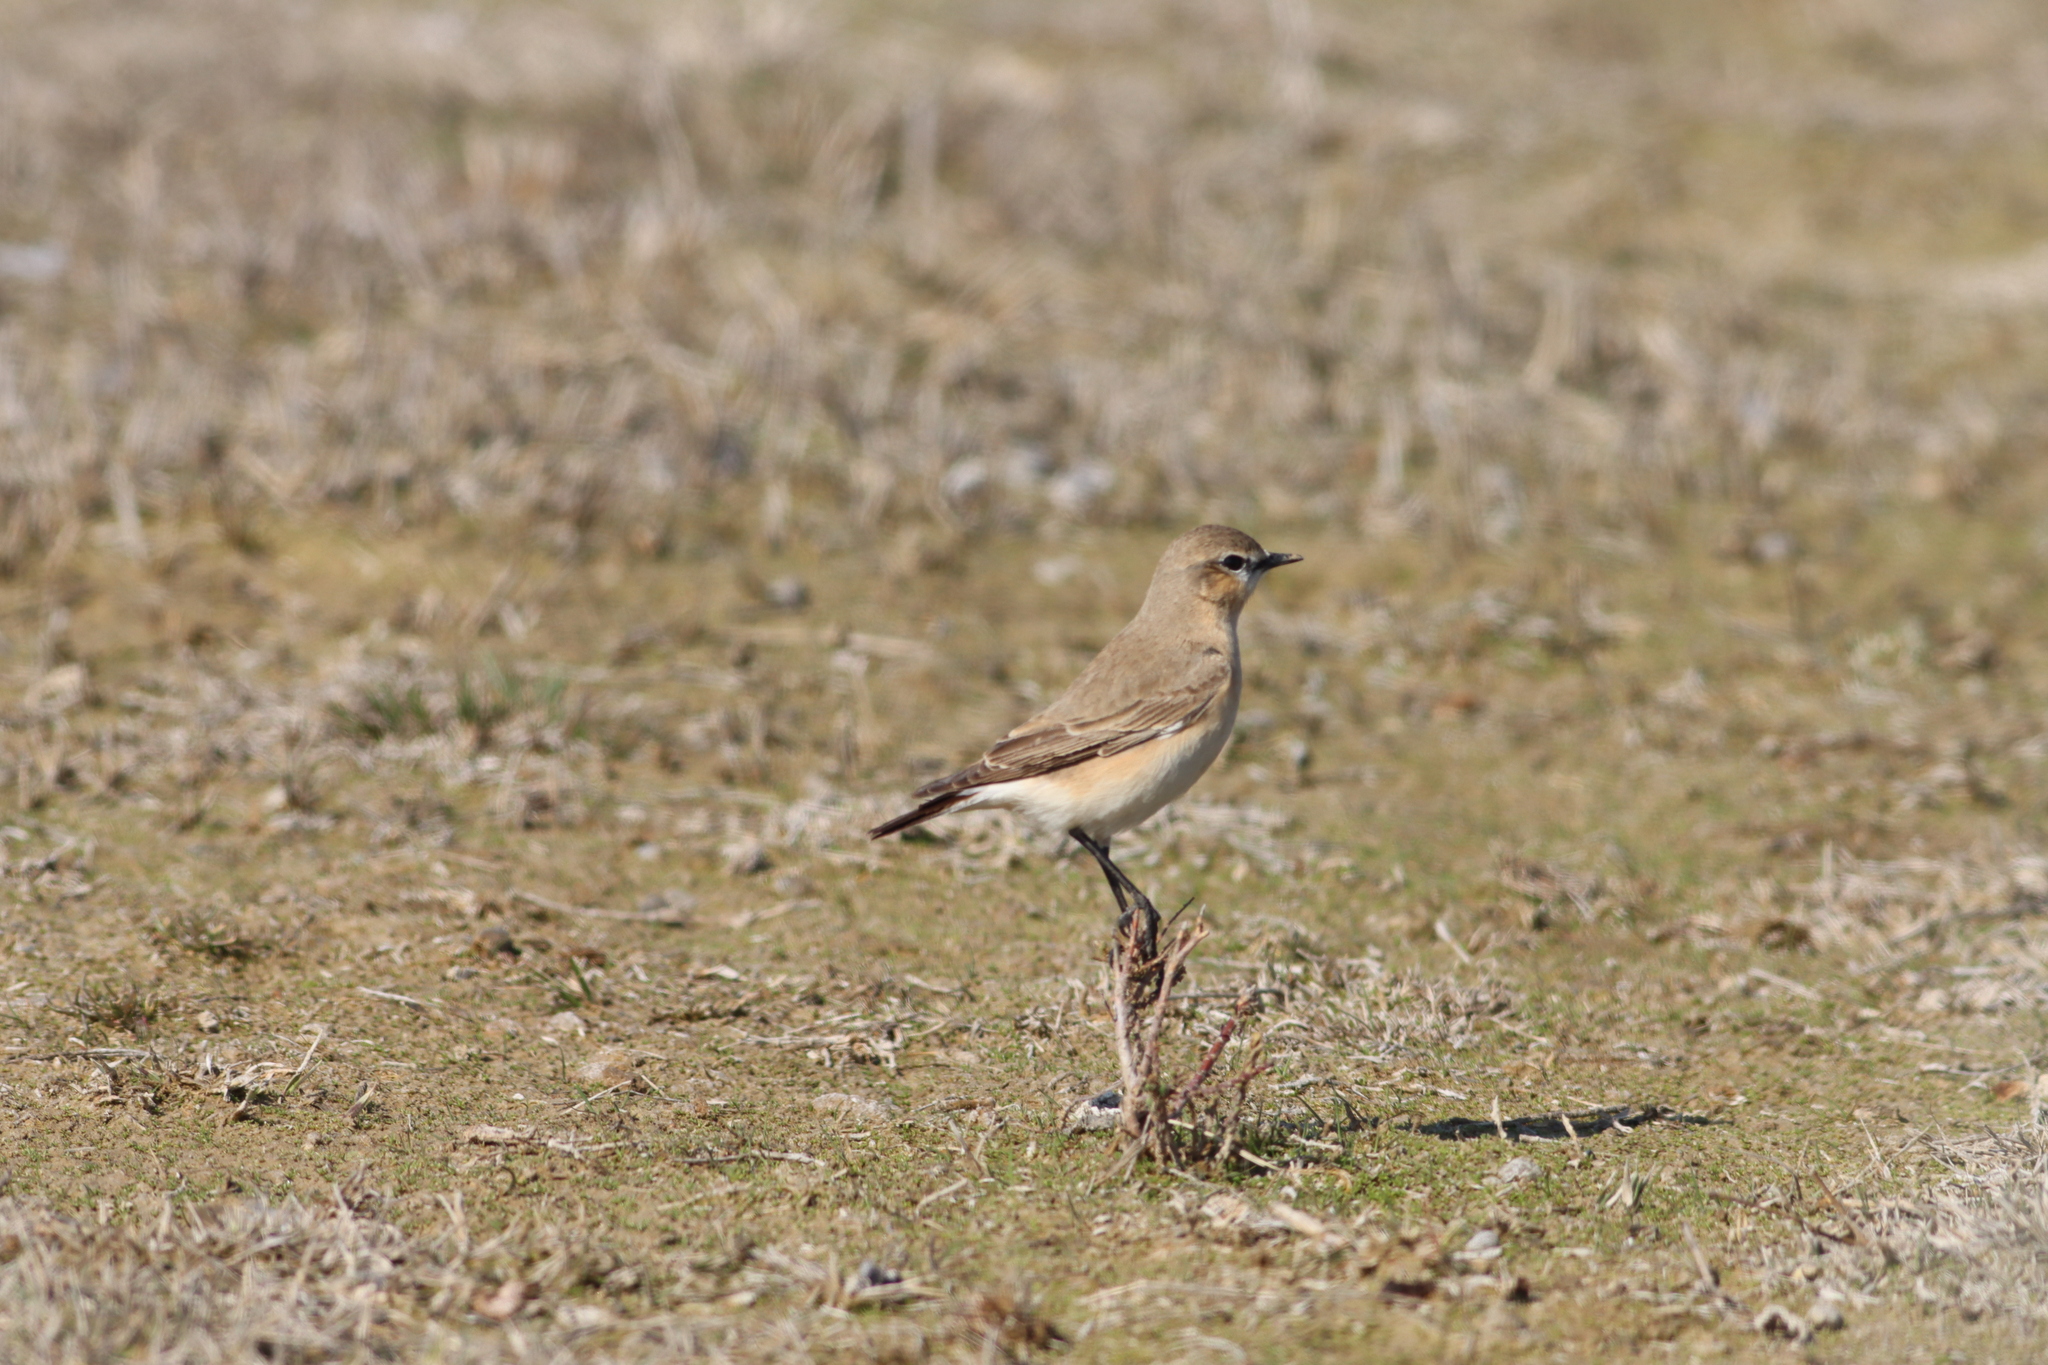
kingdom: Animalia
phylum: Chordata
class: Aves
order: Passeriformes
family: Muscicapidae
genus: Oenanthe
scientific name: Oenanthe isabellina
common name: Isabelline wheatear
